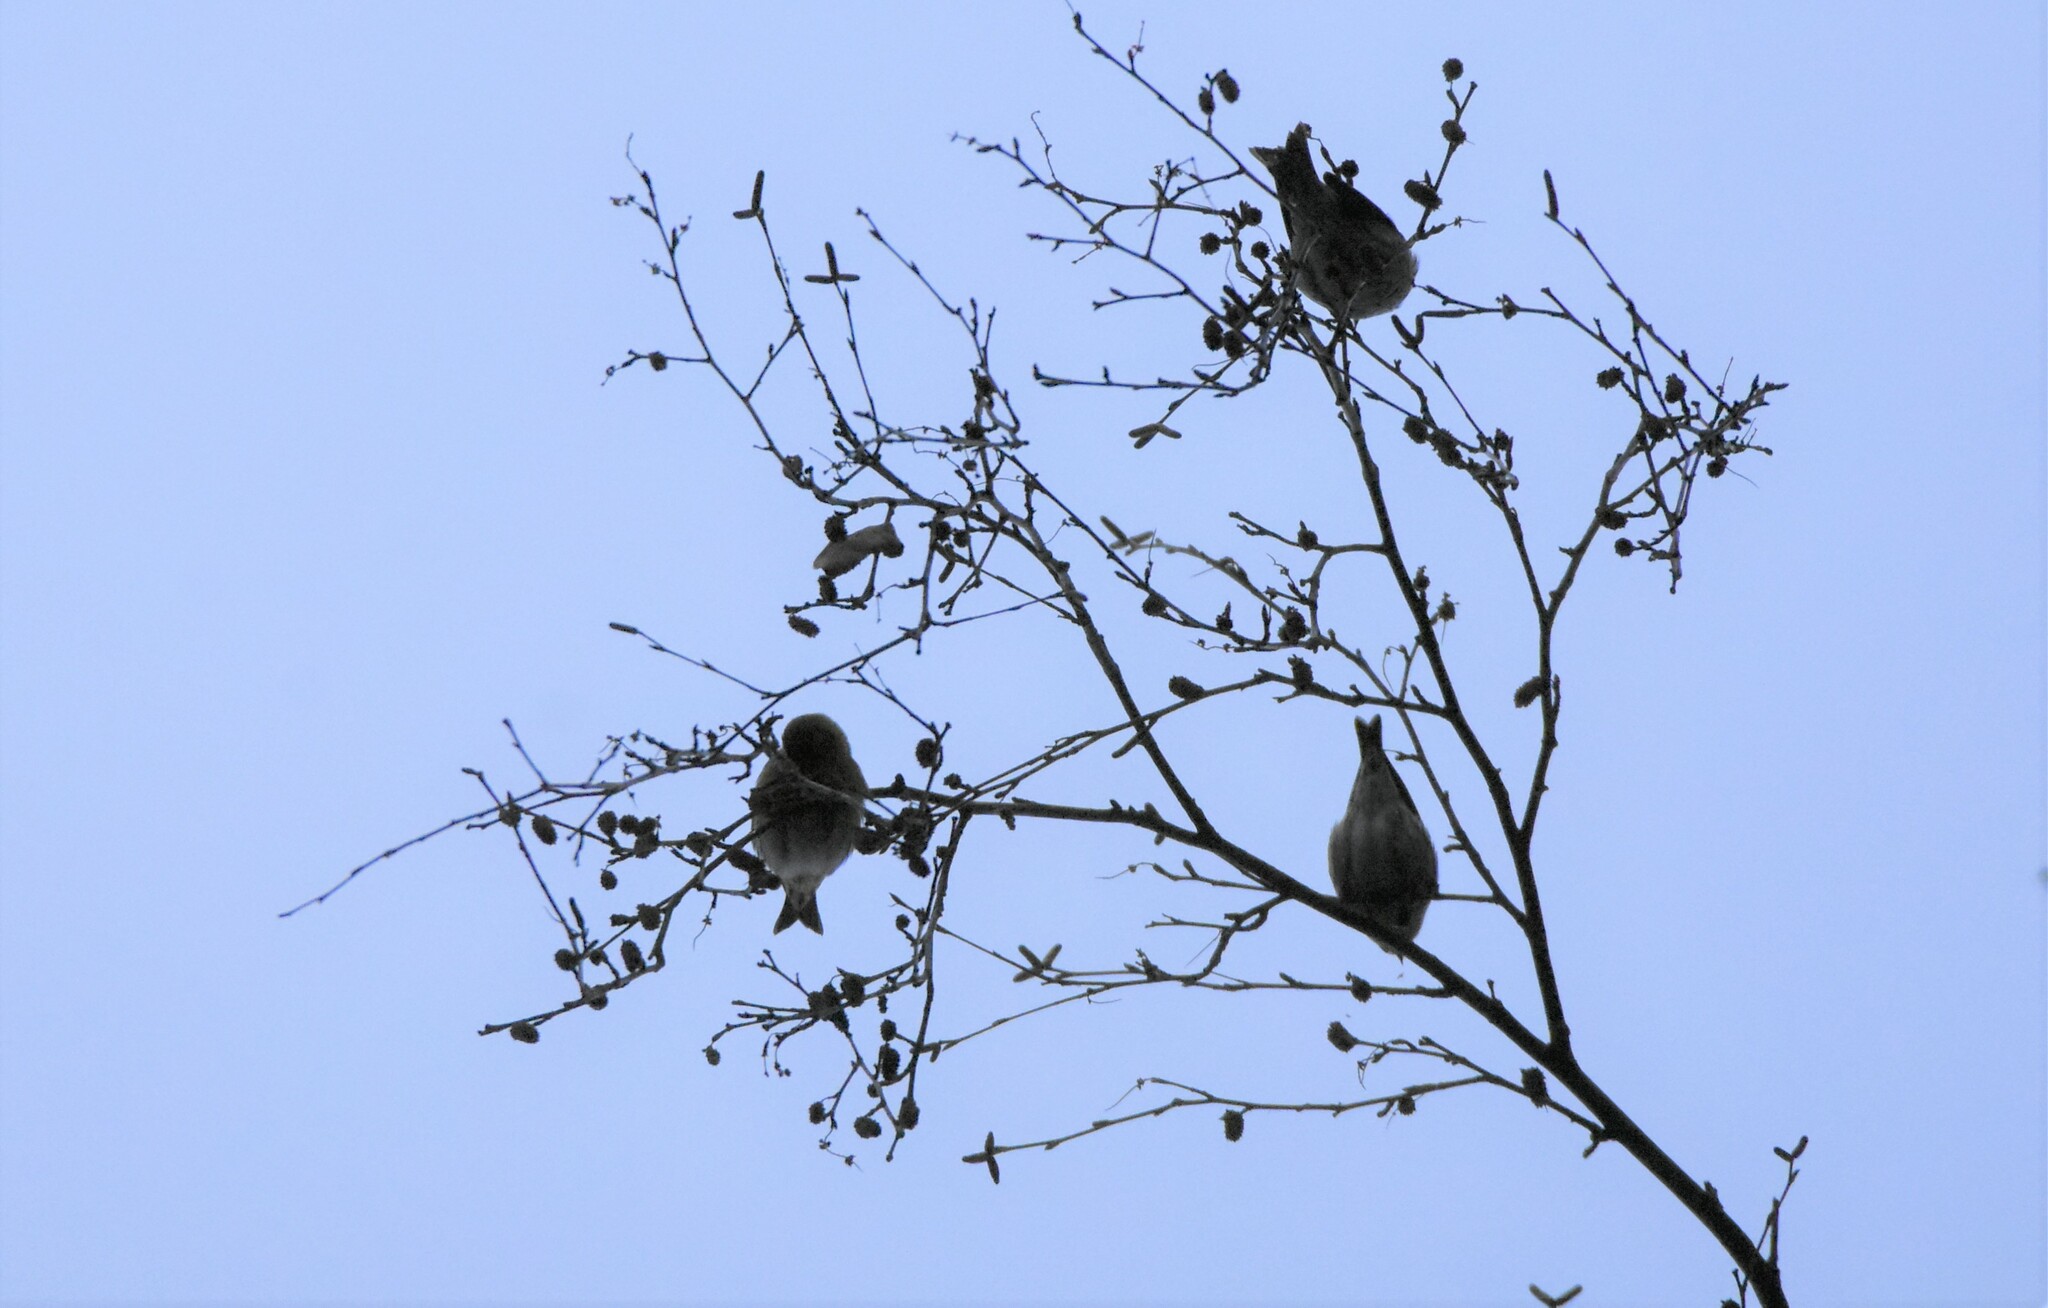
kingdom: Animalia
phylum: Chordata
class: Aves
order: Passeriformes
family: Fringillidae
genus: Acanthis
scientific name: Acanthis flammea
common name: Common redpoll
